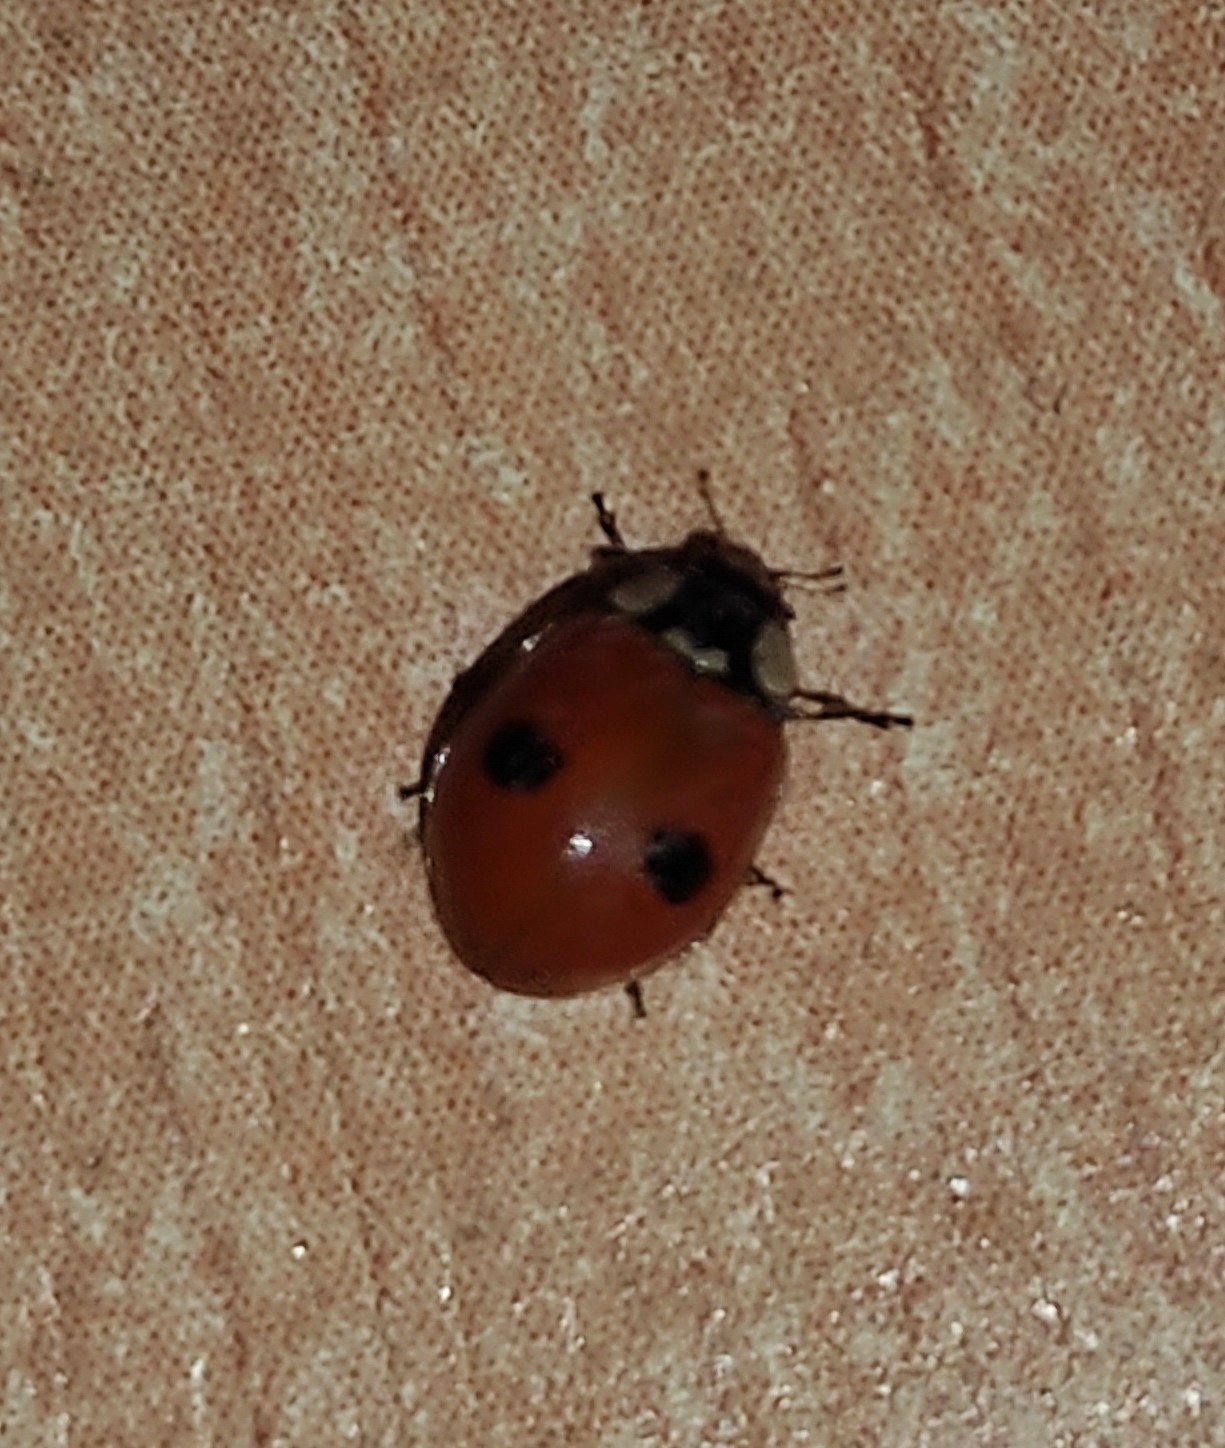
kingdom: Animalia
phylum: Arthropoda
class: Insecta
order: Coleoptera
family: Coccinellidae
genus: Adalia
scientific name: Adalia bipunctata
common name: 2-spot ladybird
